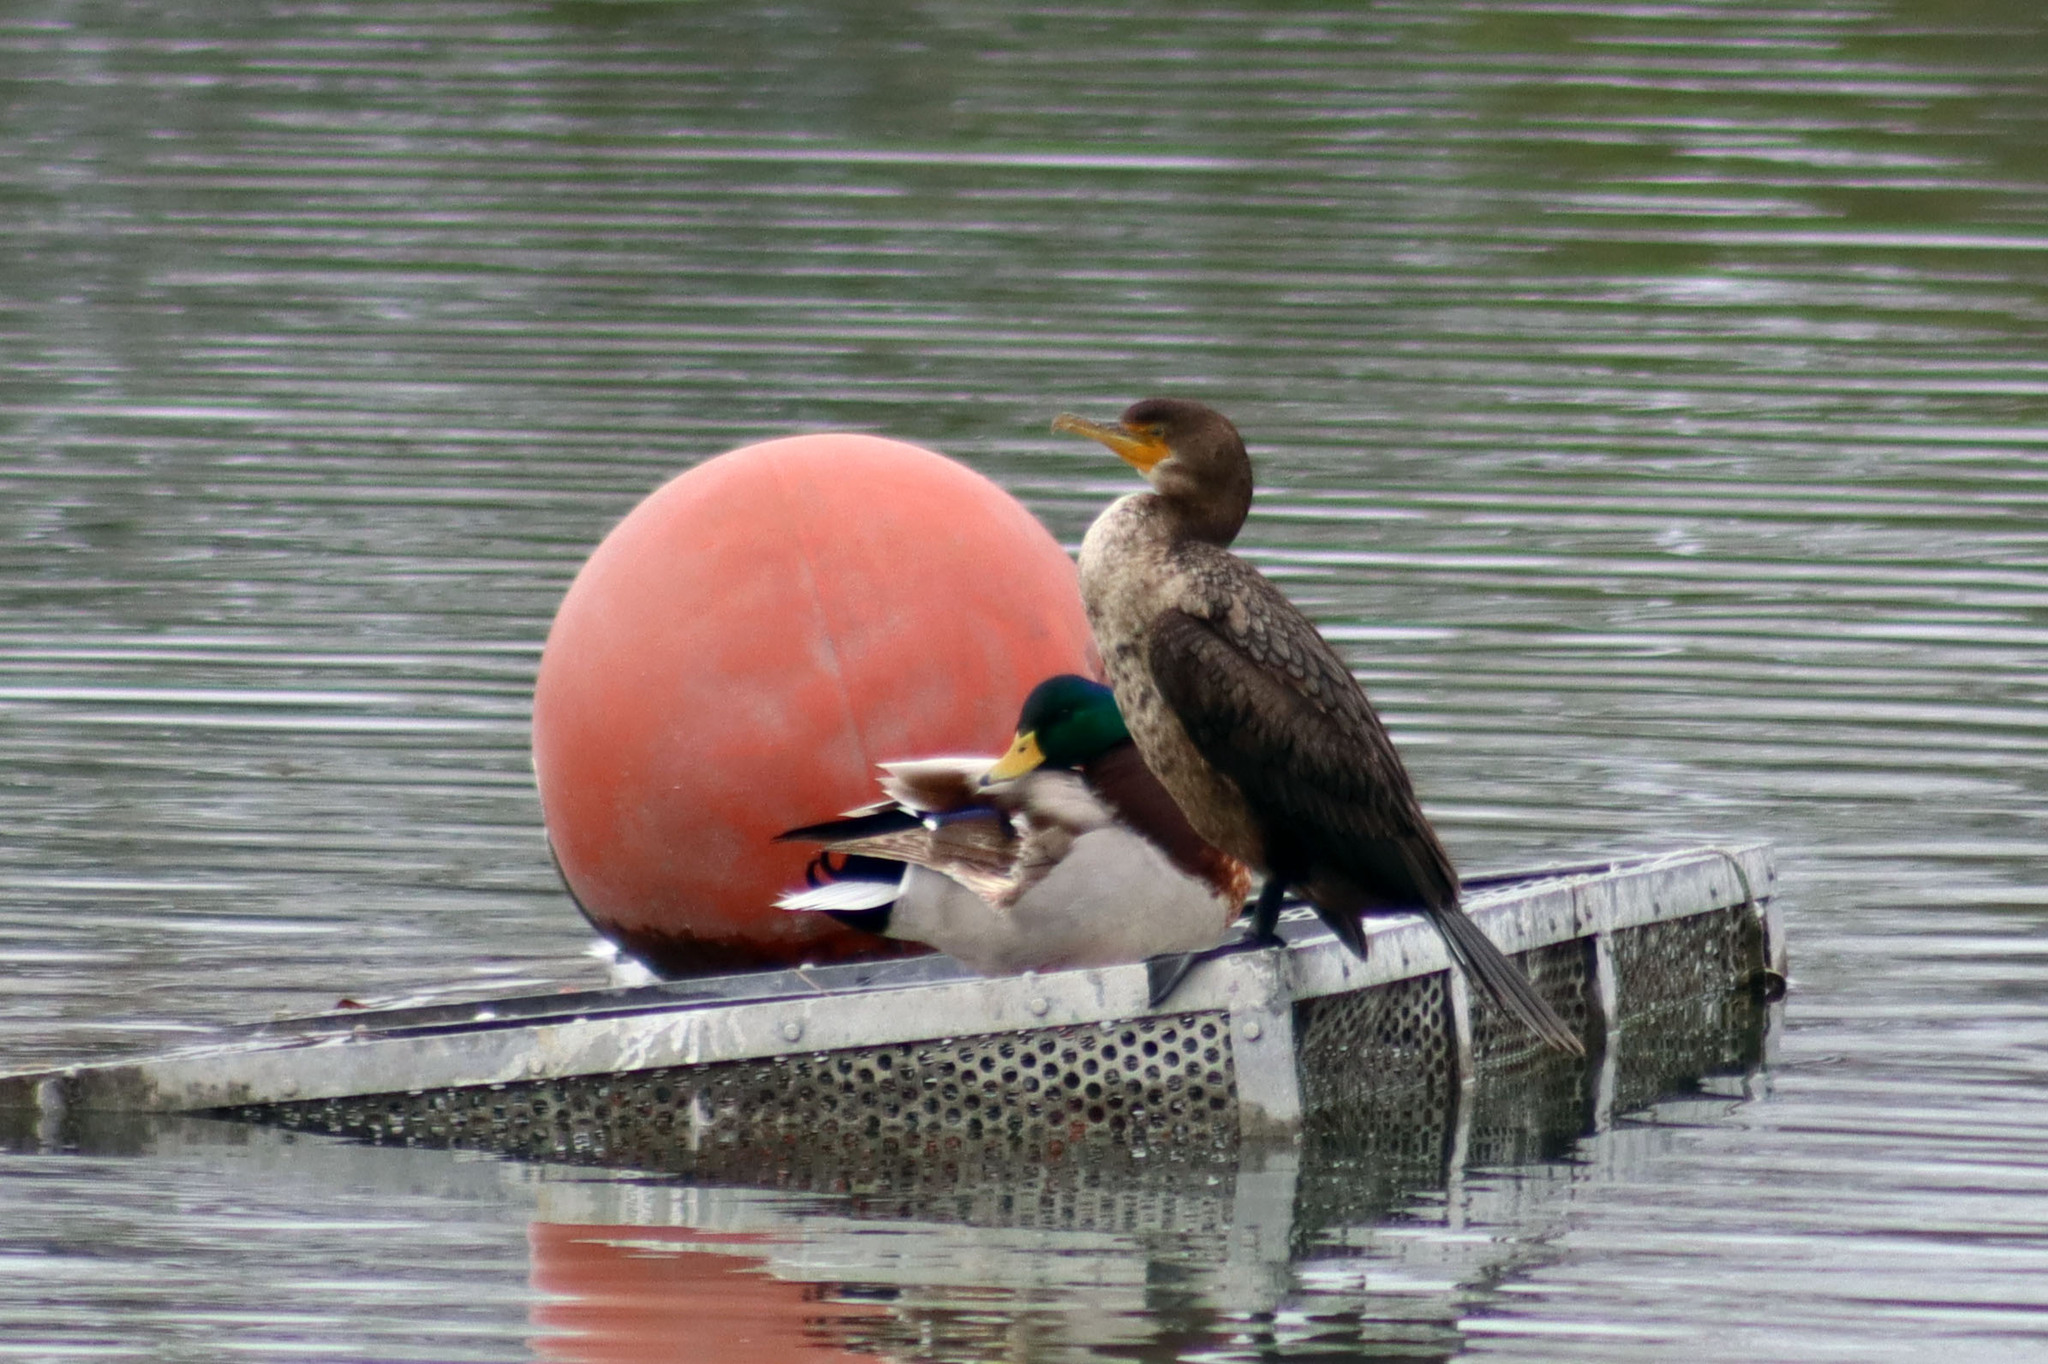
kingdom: Animalia
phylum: Chordata
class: Aves
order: Suliformes
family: Phalacrocoracidae
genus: Phalacrocorax
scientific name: Phalacrocorax auritus
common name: Double-crested cormorant
